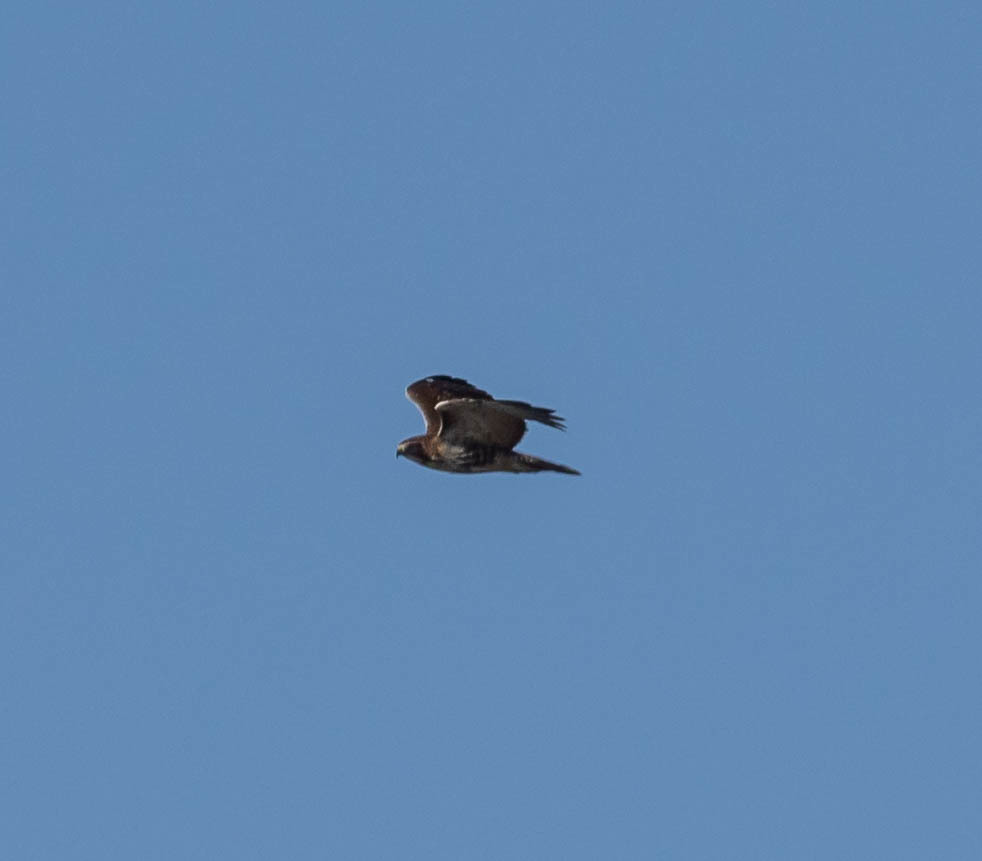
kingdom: Animalia
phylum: Chordata
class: Aves
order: Accipitriformes
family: Accipitridae
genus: Buteo
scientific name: Buteo jamaicensis
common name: Red-tailed hawk
